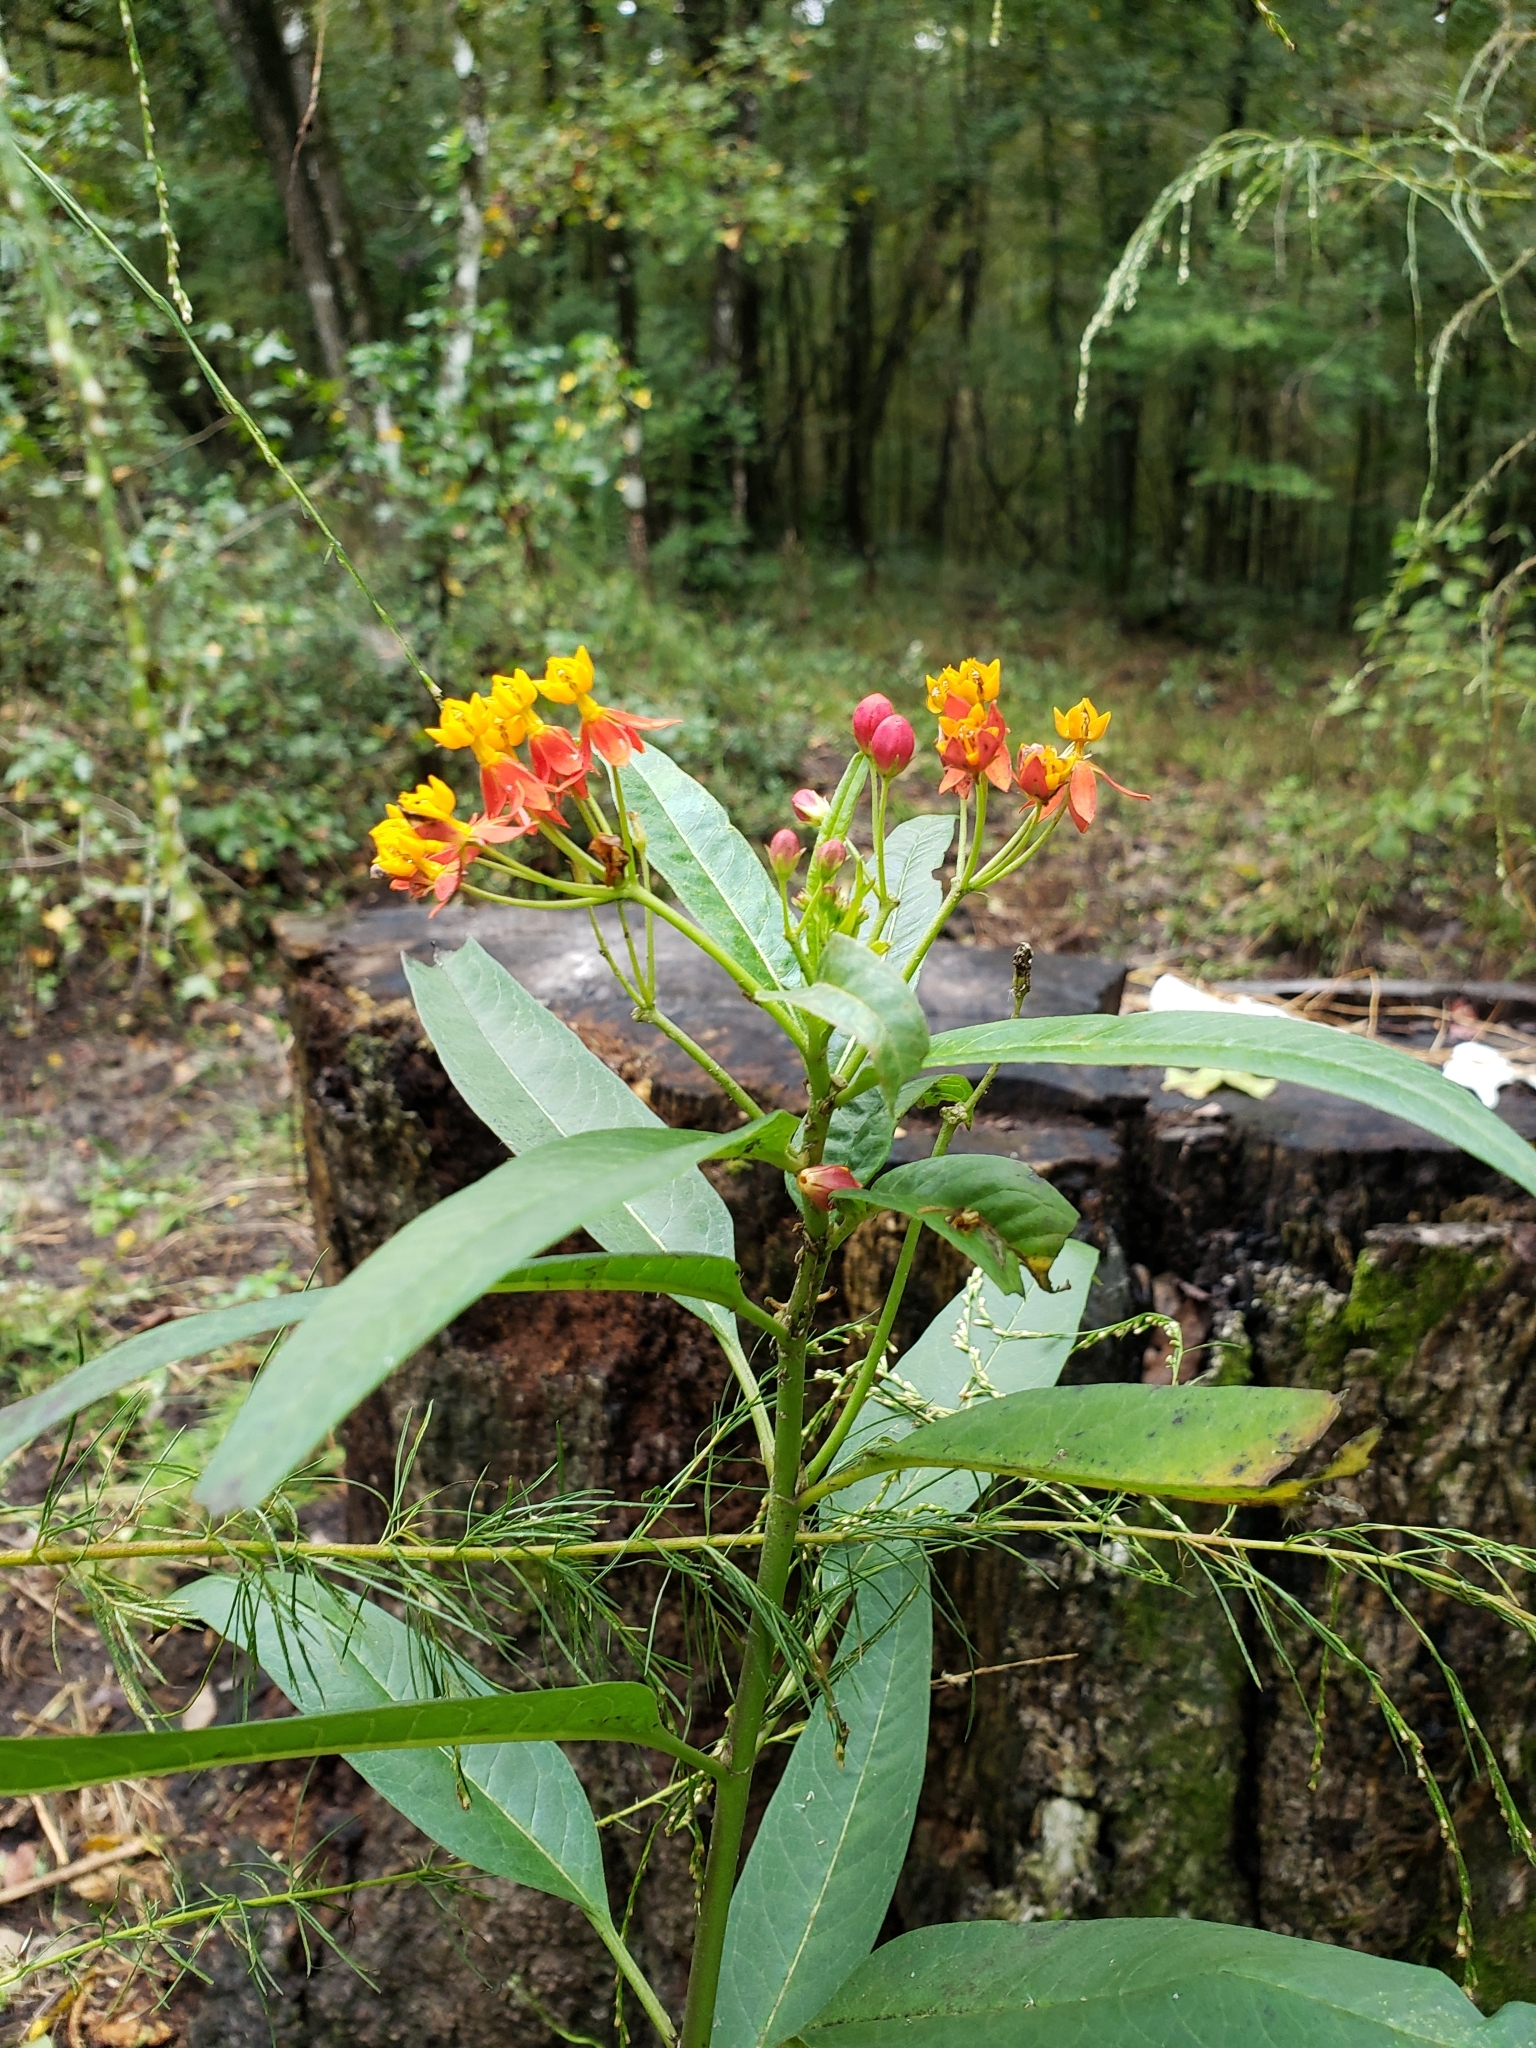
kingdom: Plantae
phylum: Tracheophyta
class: Magnoliopsida
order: Gentianales
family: Apocynaceae
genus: Asclepias
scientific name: Asclepias curassavica
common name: Bloodflower
